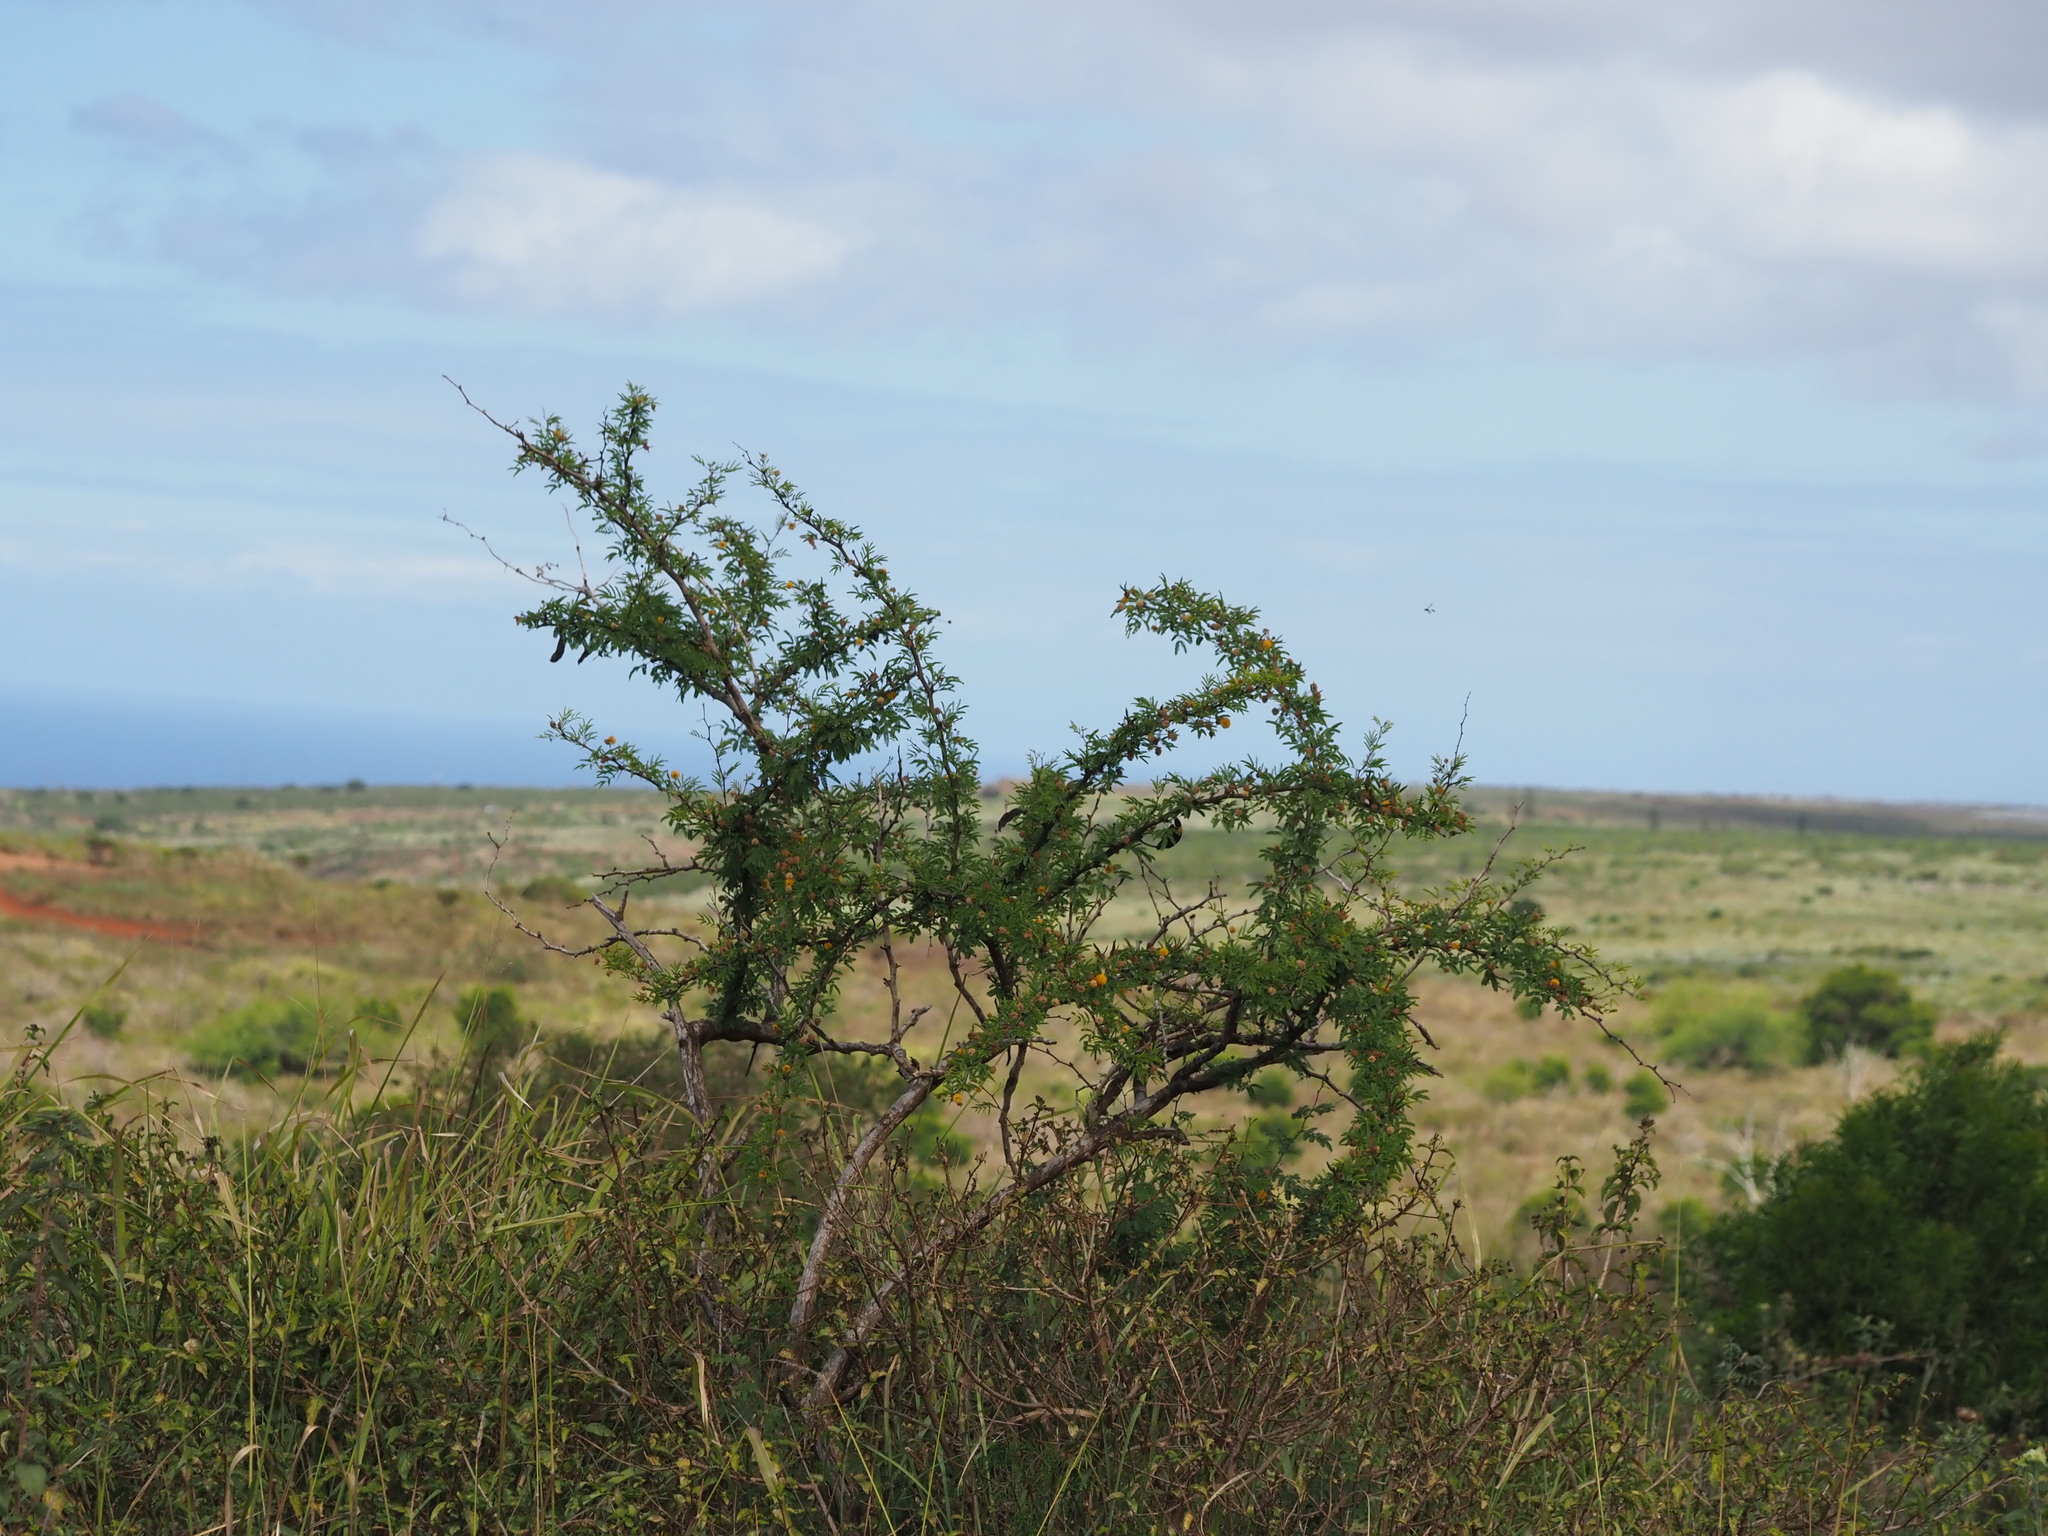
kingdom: Plantae
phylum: Tracheophyta
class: Magnoliopsida
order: Fabales
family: Fabaceae
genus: Vachellia
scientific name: Vachellia farnesiana
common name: Sweet acacia
